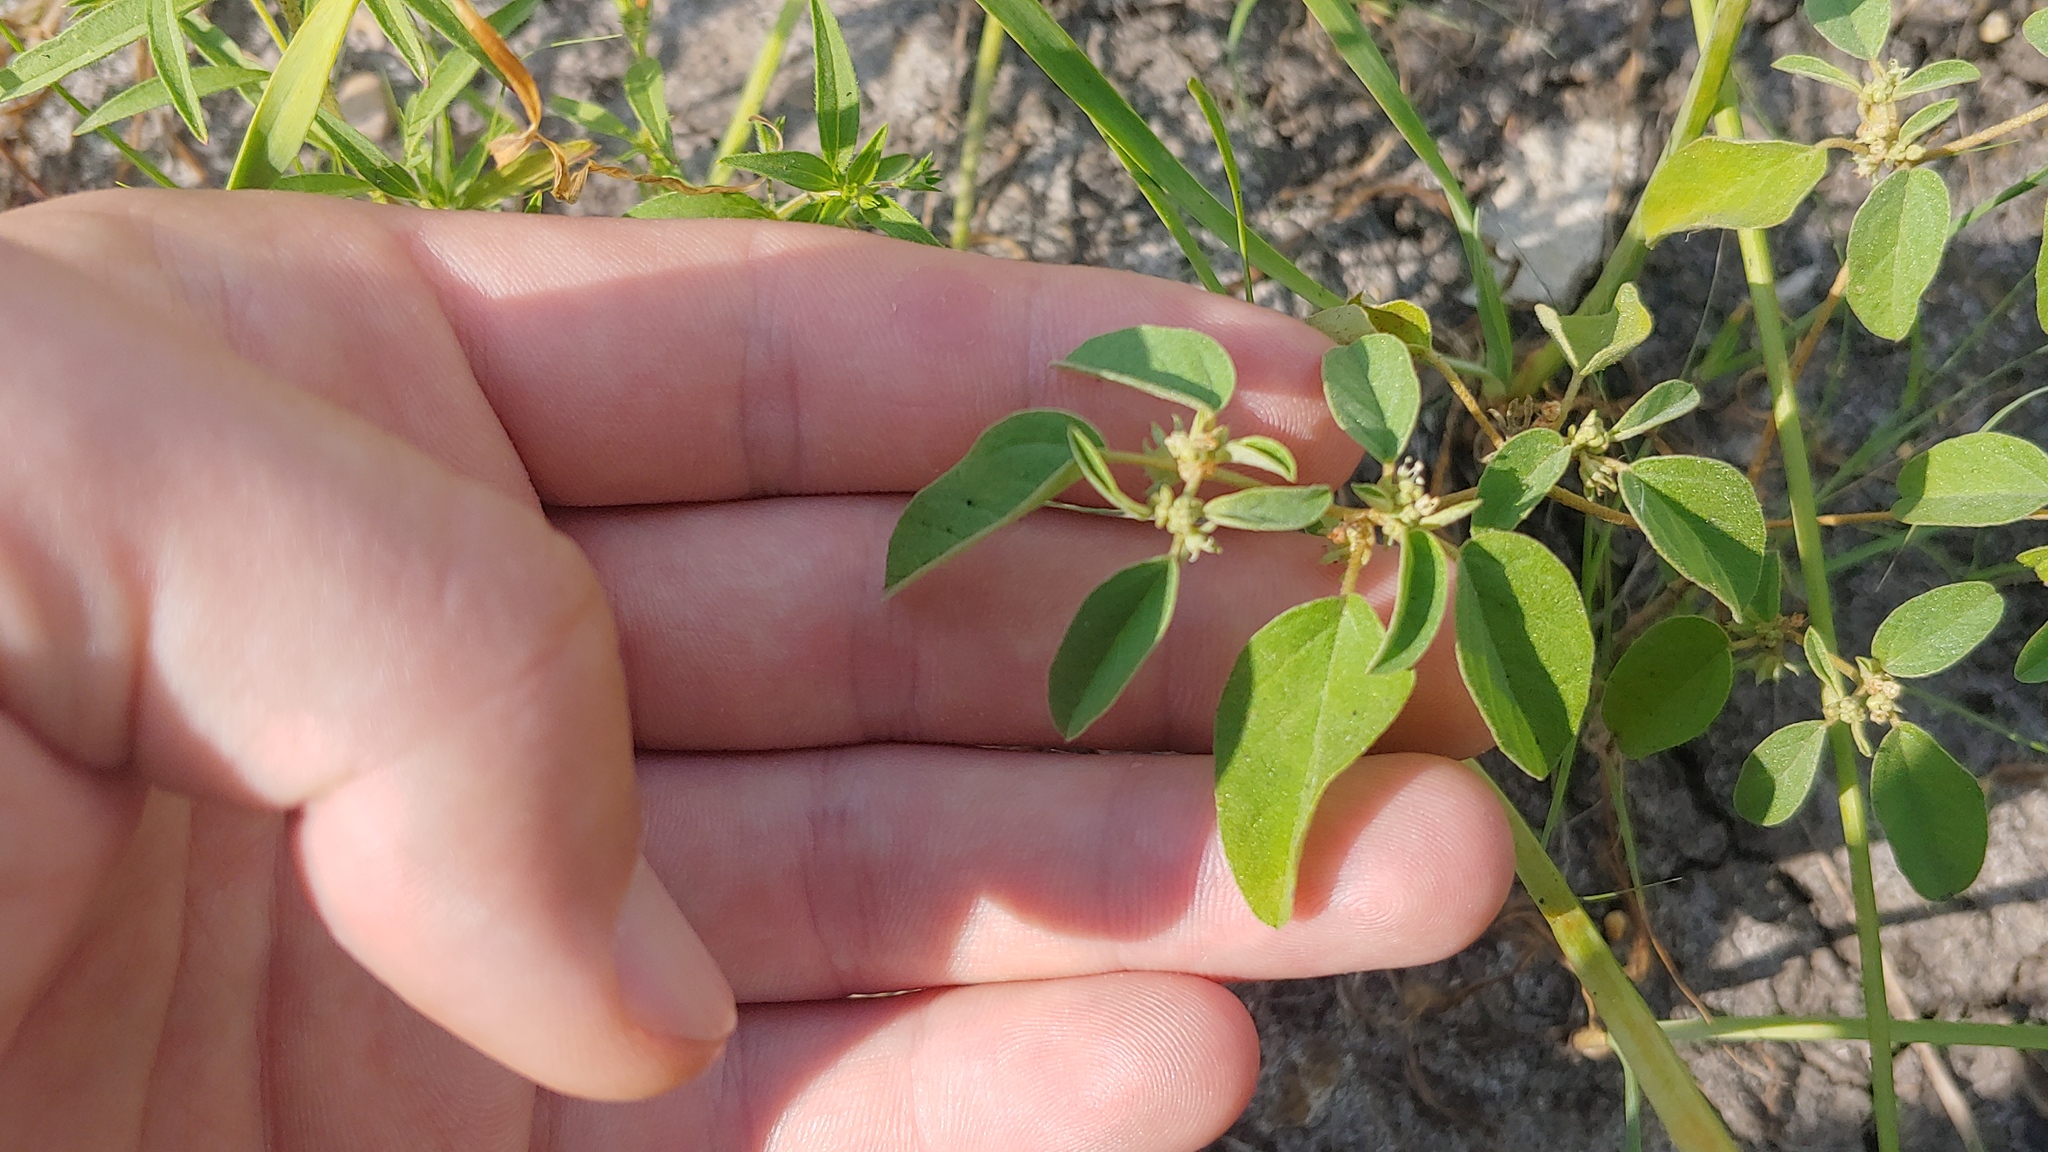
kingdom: Plantae
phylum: Tracheophyta
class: Magnoliopsida
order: Malpighiales
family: Euphorbiaceae
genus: Croton
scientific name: Croton monanthogynus
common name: One-seed croton
